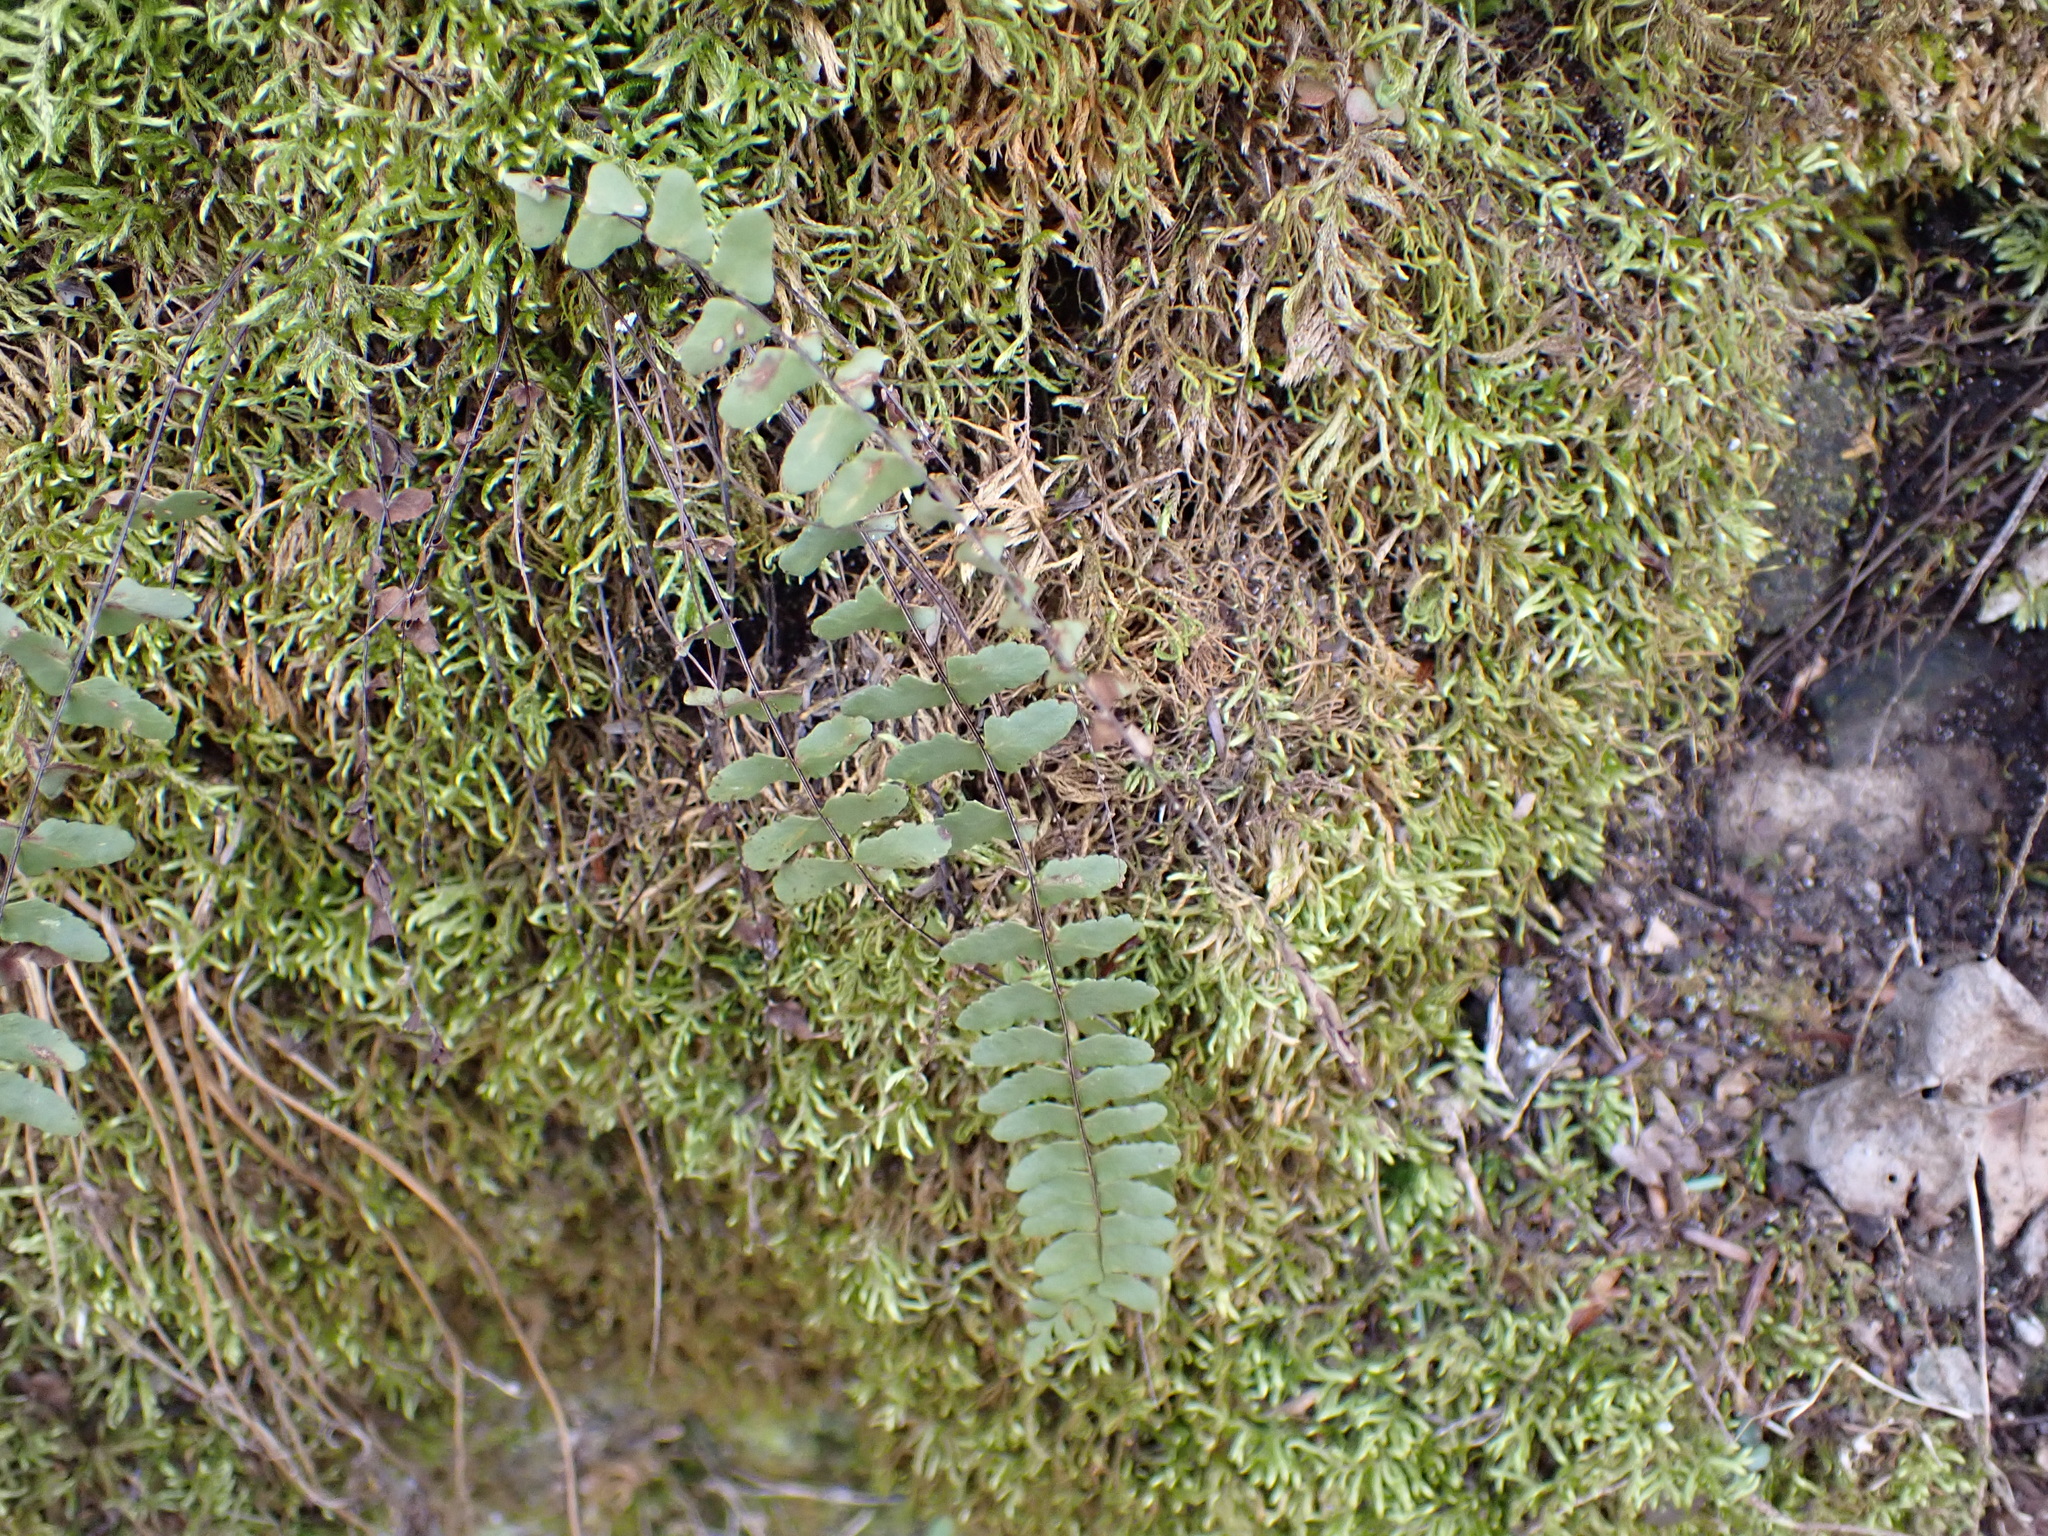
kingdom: Plantae
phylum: Tracheophyta
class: Polypodiopsida
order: Polypodiales
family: Aspleniaceae
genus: Asplenium
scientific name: Asplenium resiliens
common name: Blackstem spleenwort
